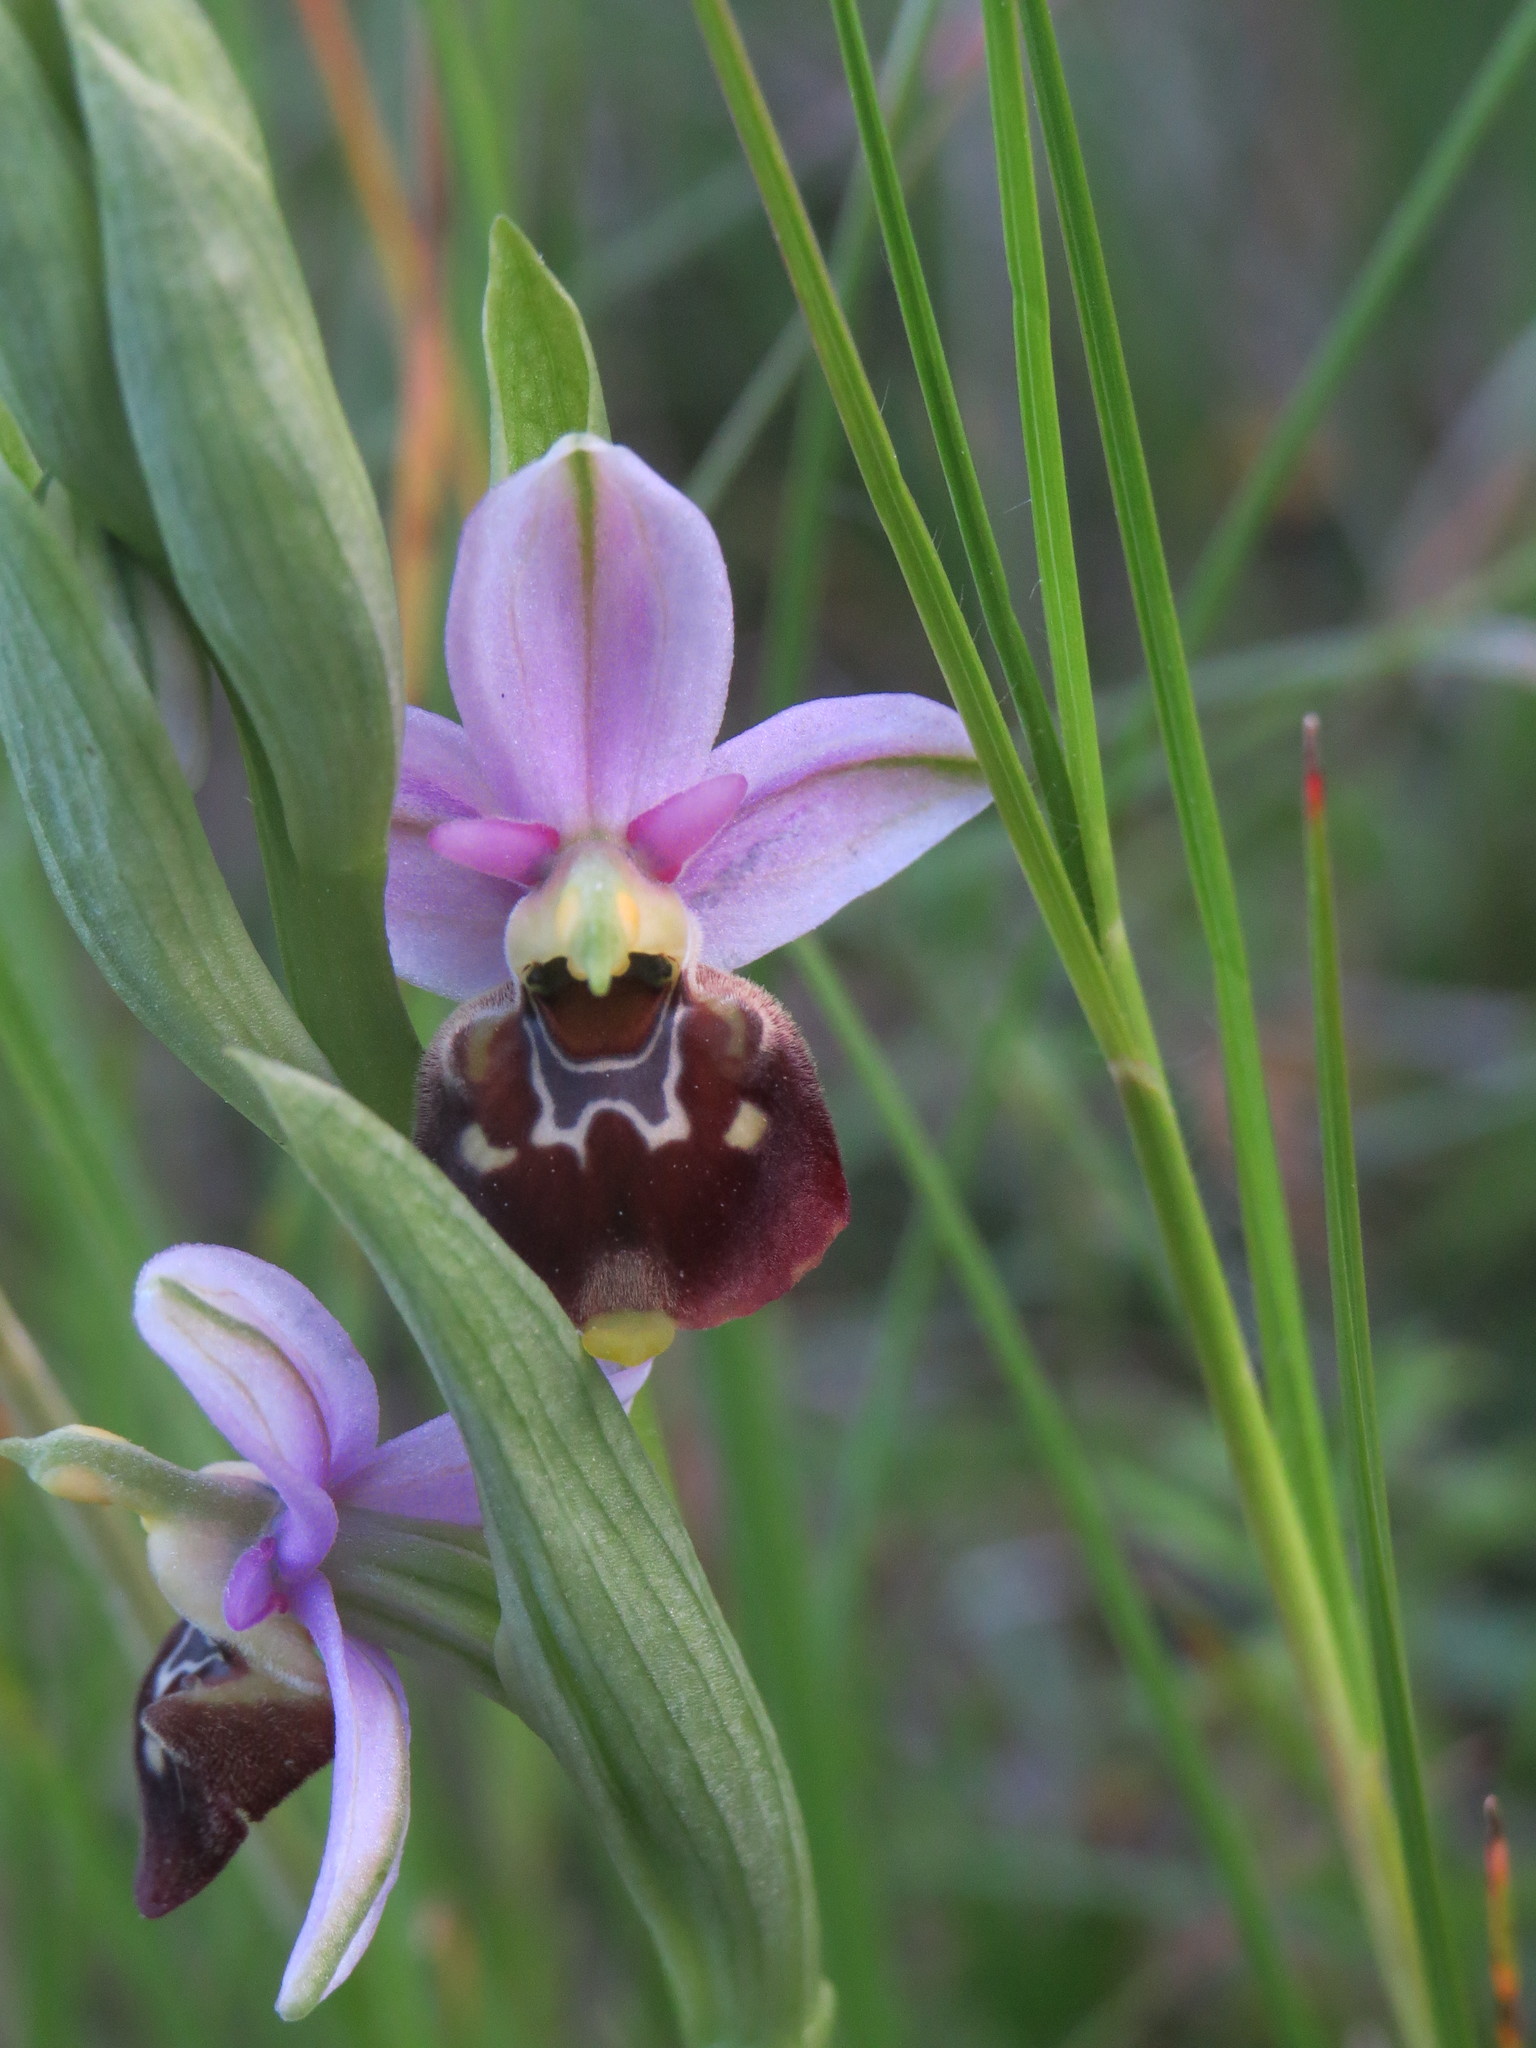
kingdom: Plantae
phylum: Tracheophyta
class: Liliopsida
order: Asparagales
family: Orchidaceae
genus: Ophrys
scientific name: Ophrys holosericea
